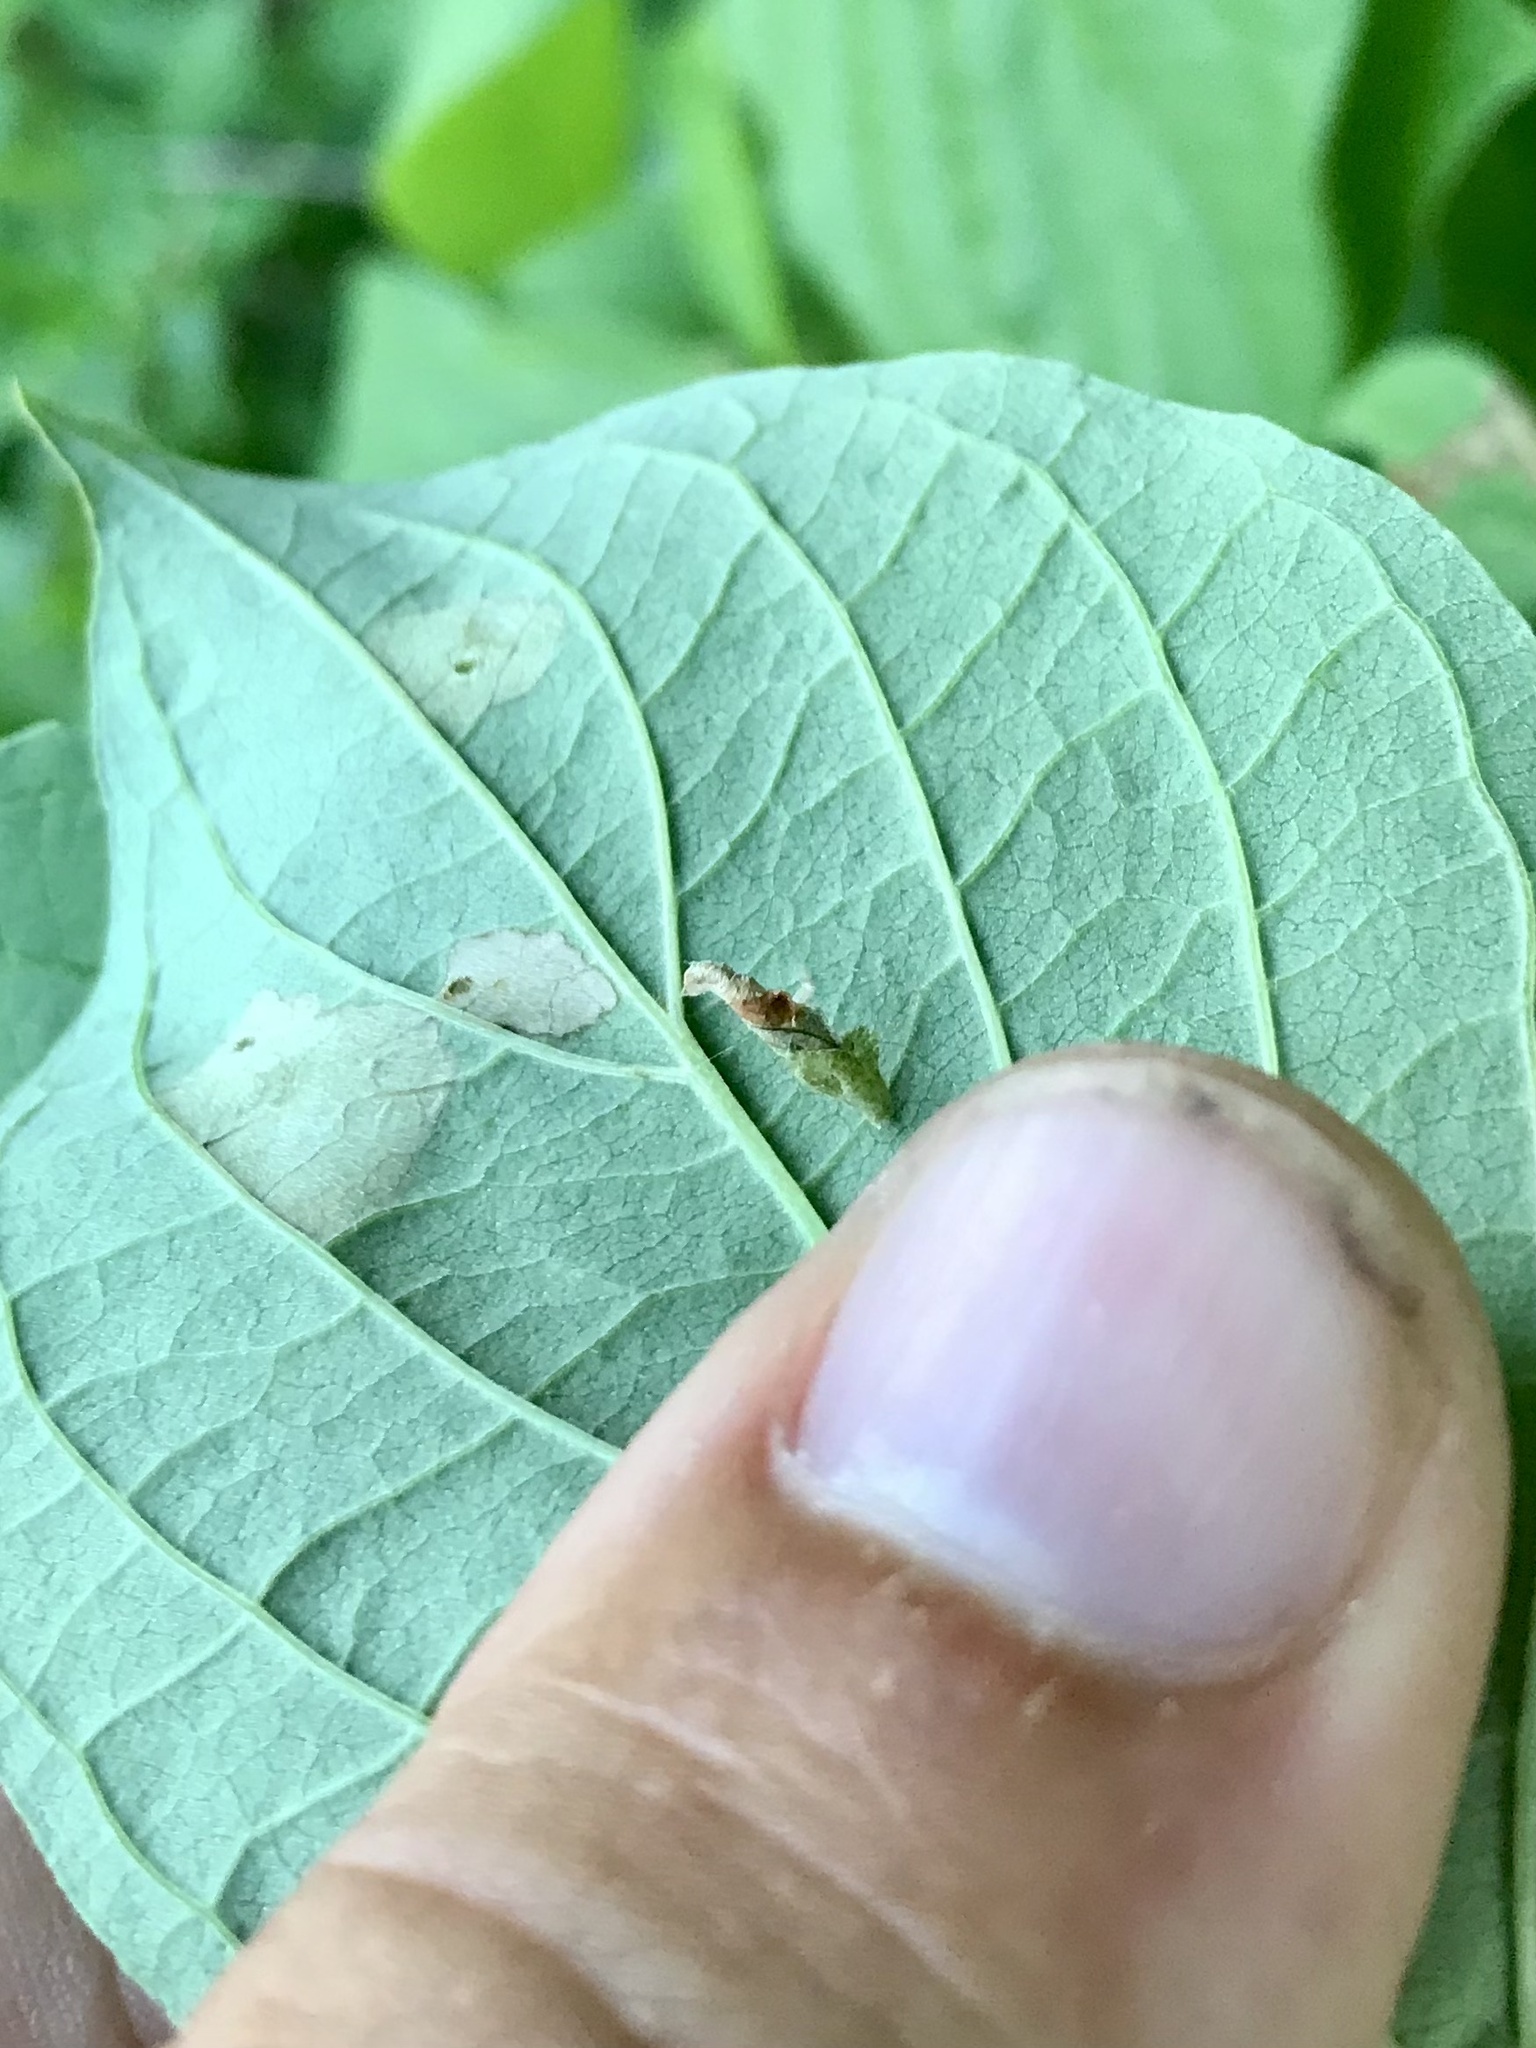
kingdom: Animalia
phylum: Arthropoda
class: Insecta
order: Lepidoptera
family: Coleophoridae
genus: Coleophora
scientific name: Coleophora cornivorella
